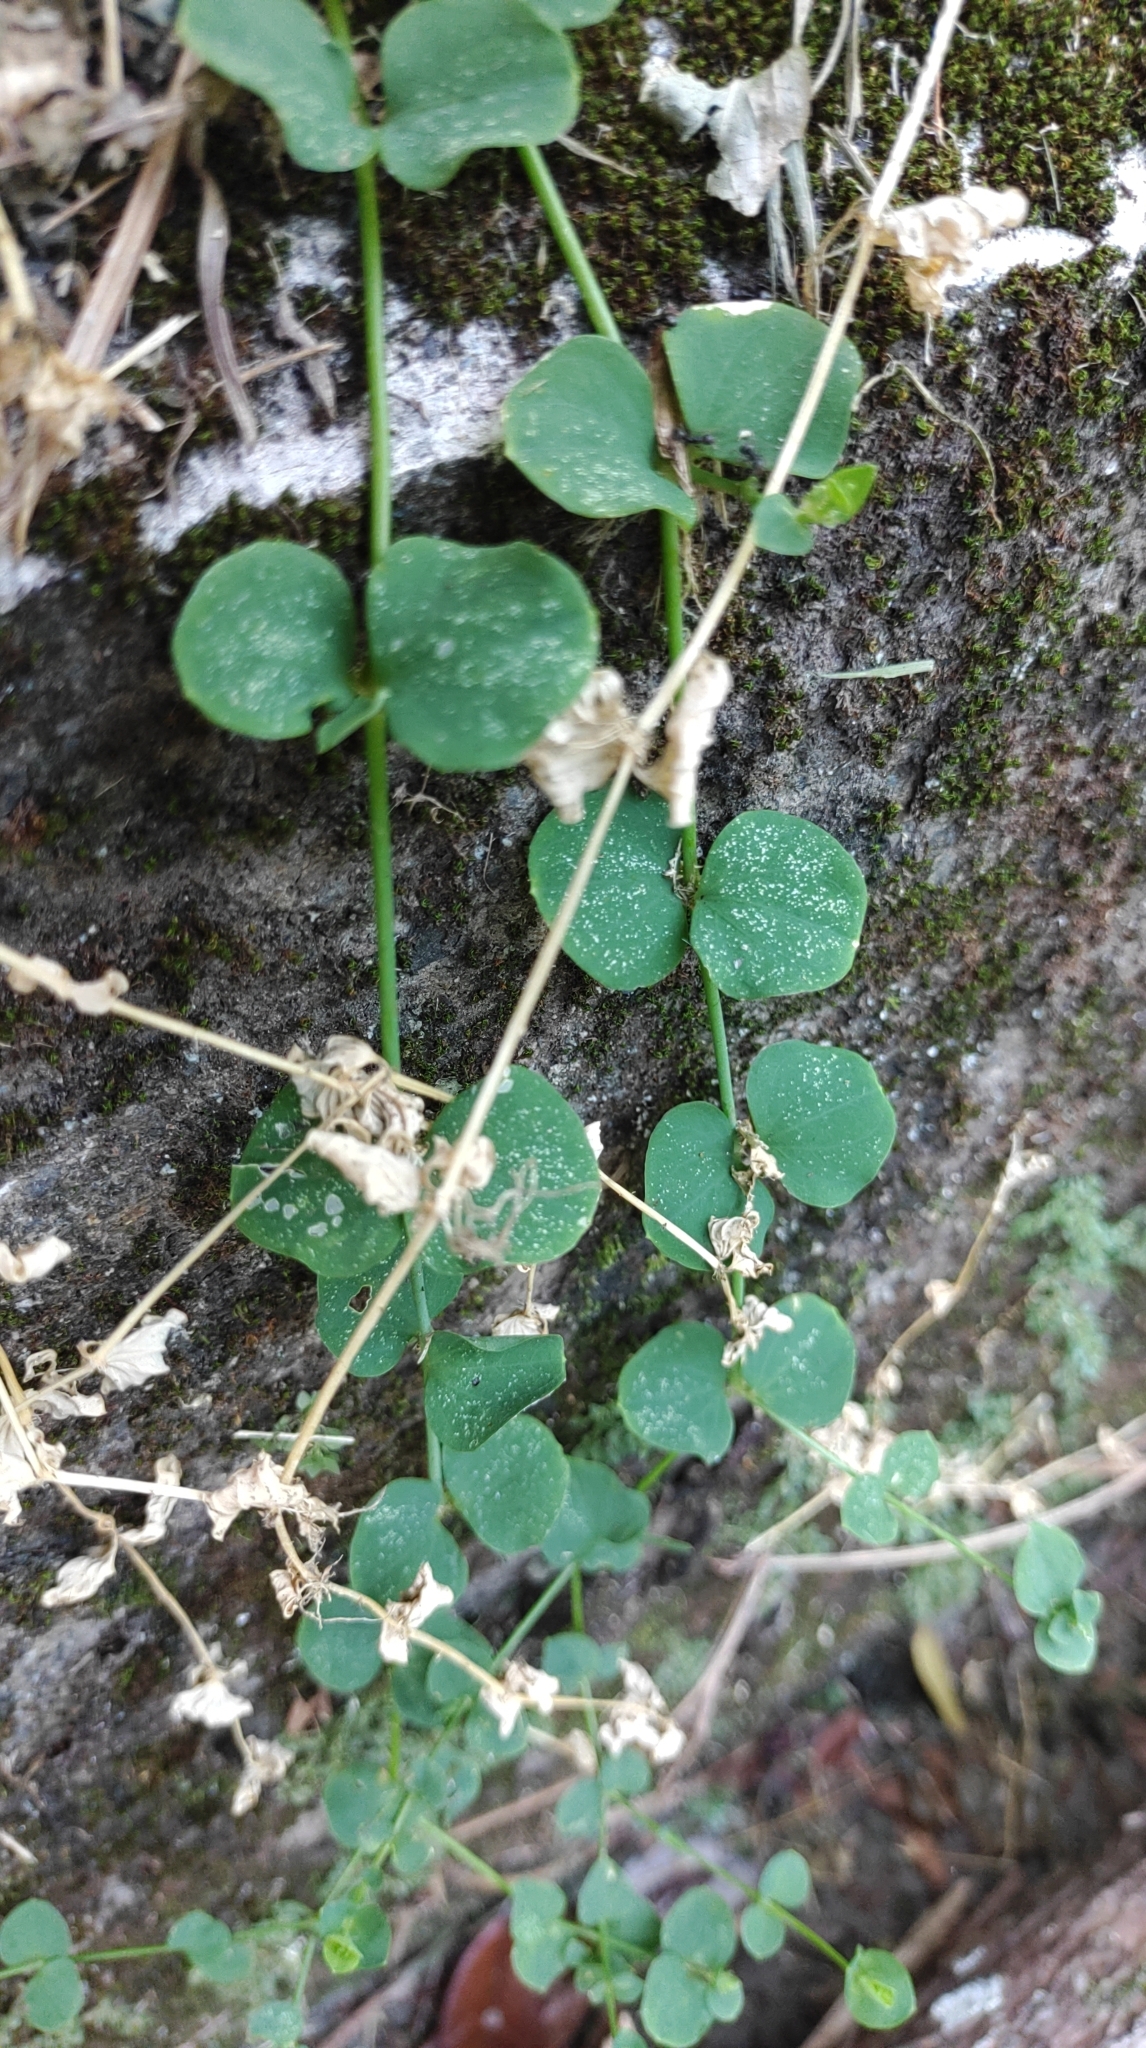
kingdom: Plantae
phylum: Tracheophyta
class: Magnoliopsida
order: Caryophyllales
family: Caryophyllaceae
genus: Drymaria
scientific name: Drymaria cordata
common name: Whitesnow
